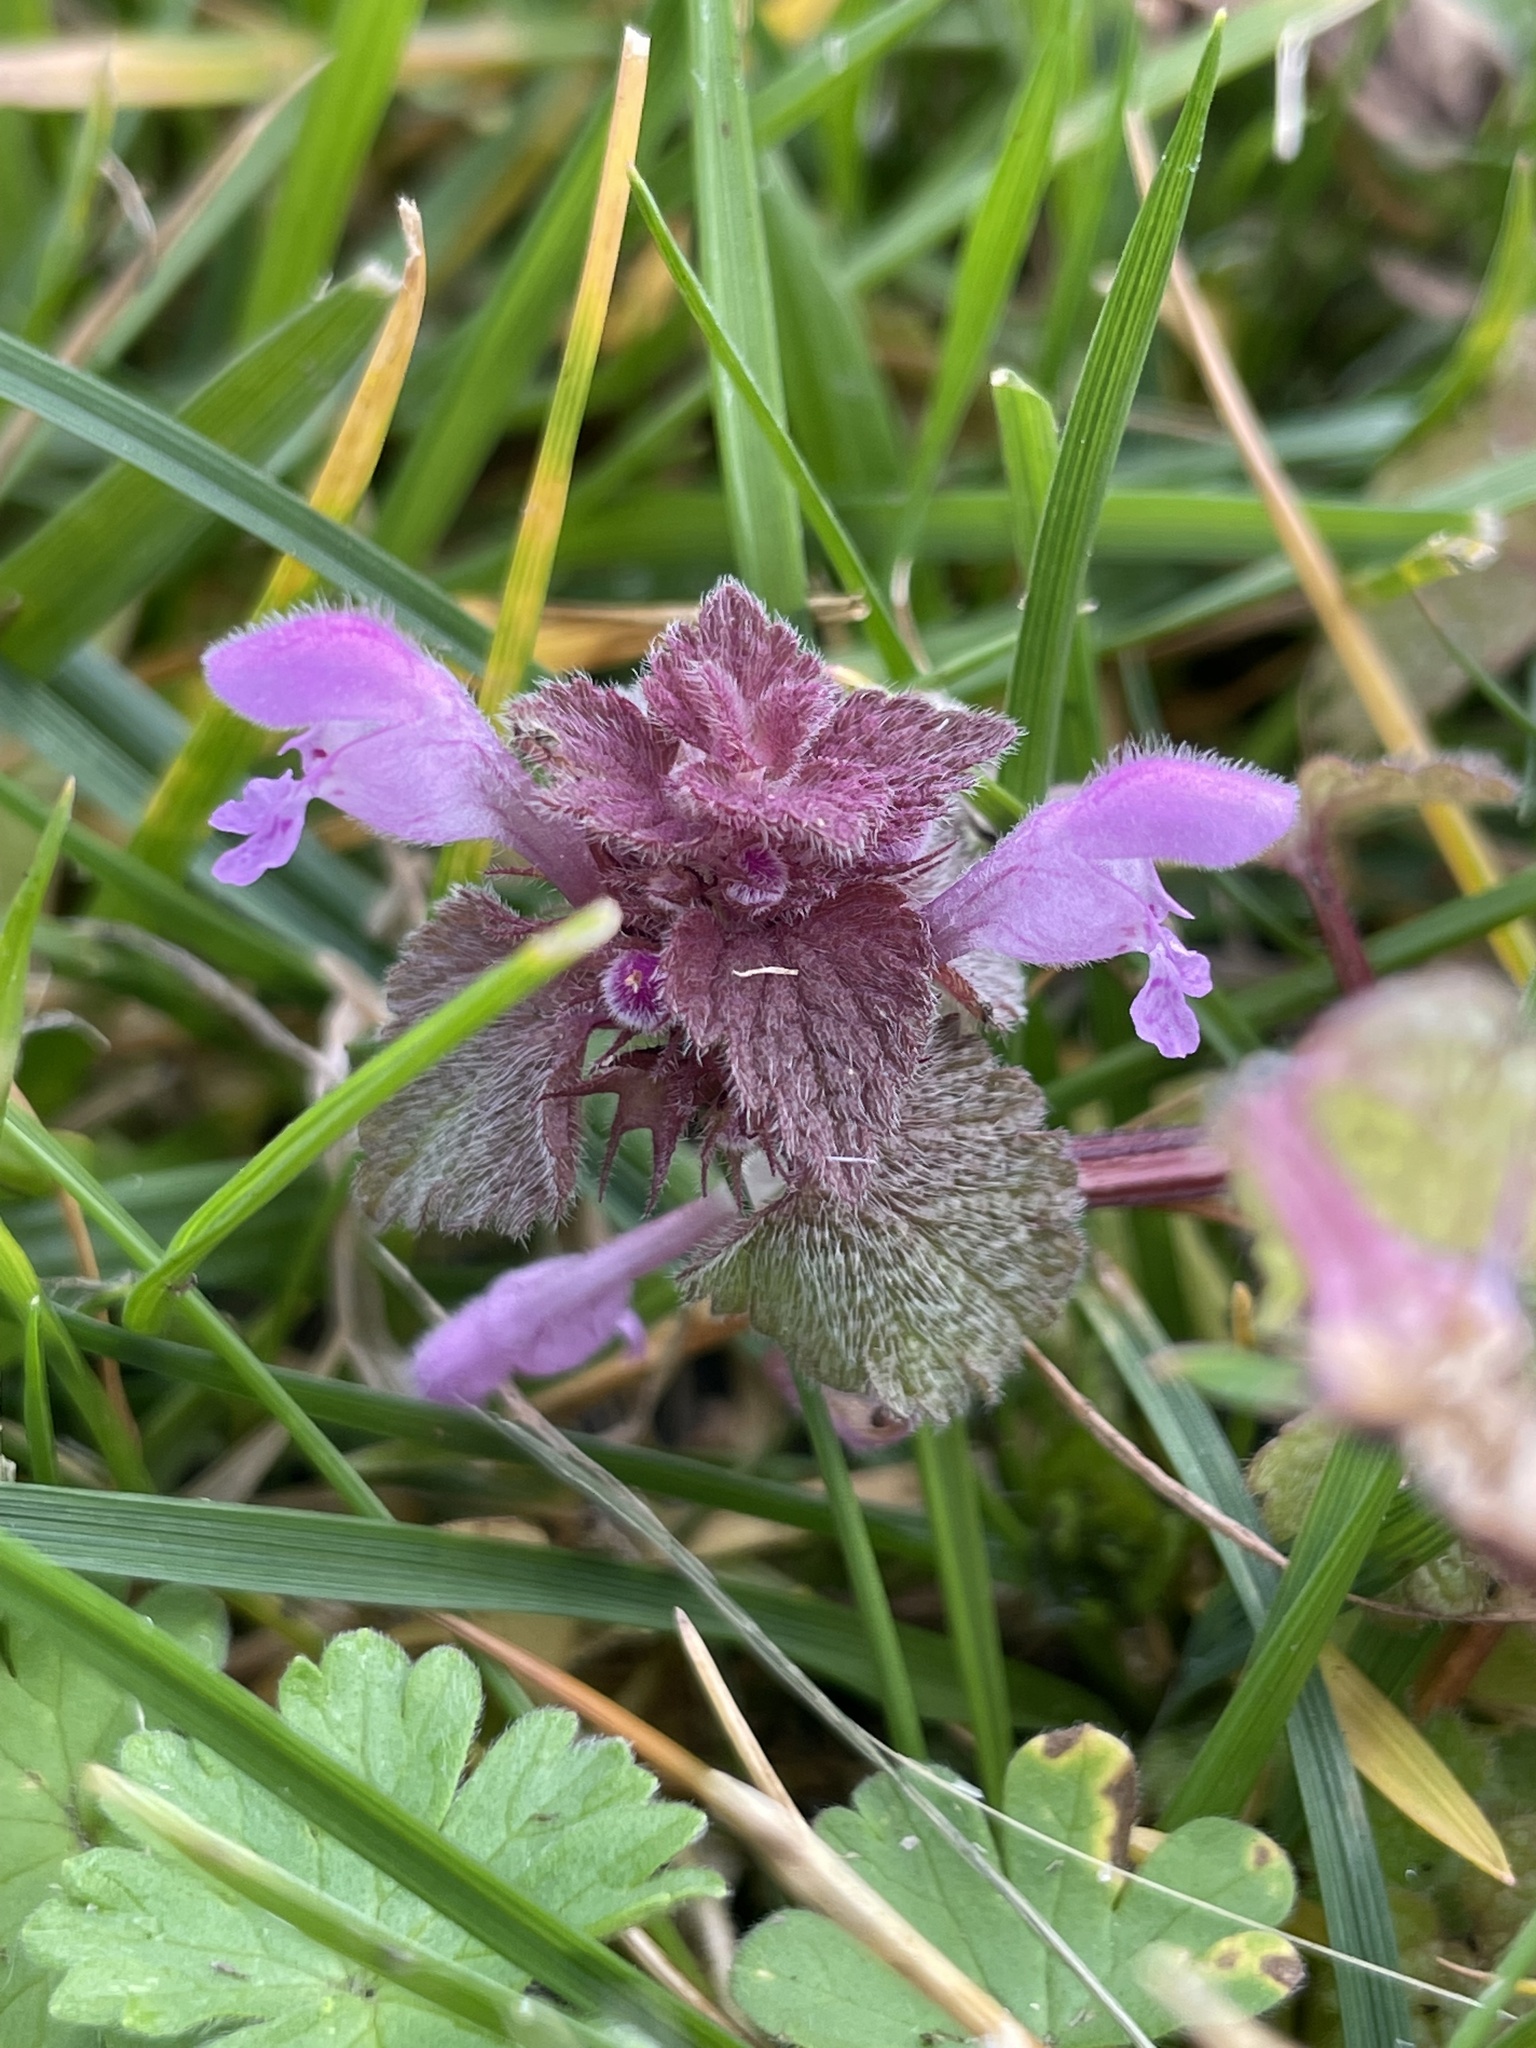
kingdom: Plantae
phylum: Tracheophyta
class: Magnoliopsida
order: Lamiales
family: Lamiaceae
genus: Lamium
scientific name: Lamium purpureum
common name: Red dead-nettle
